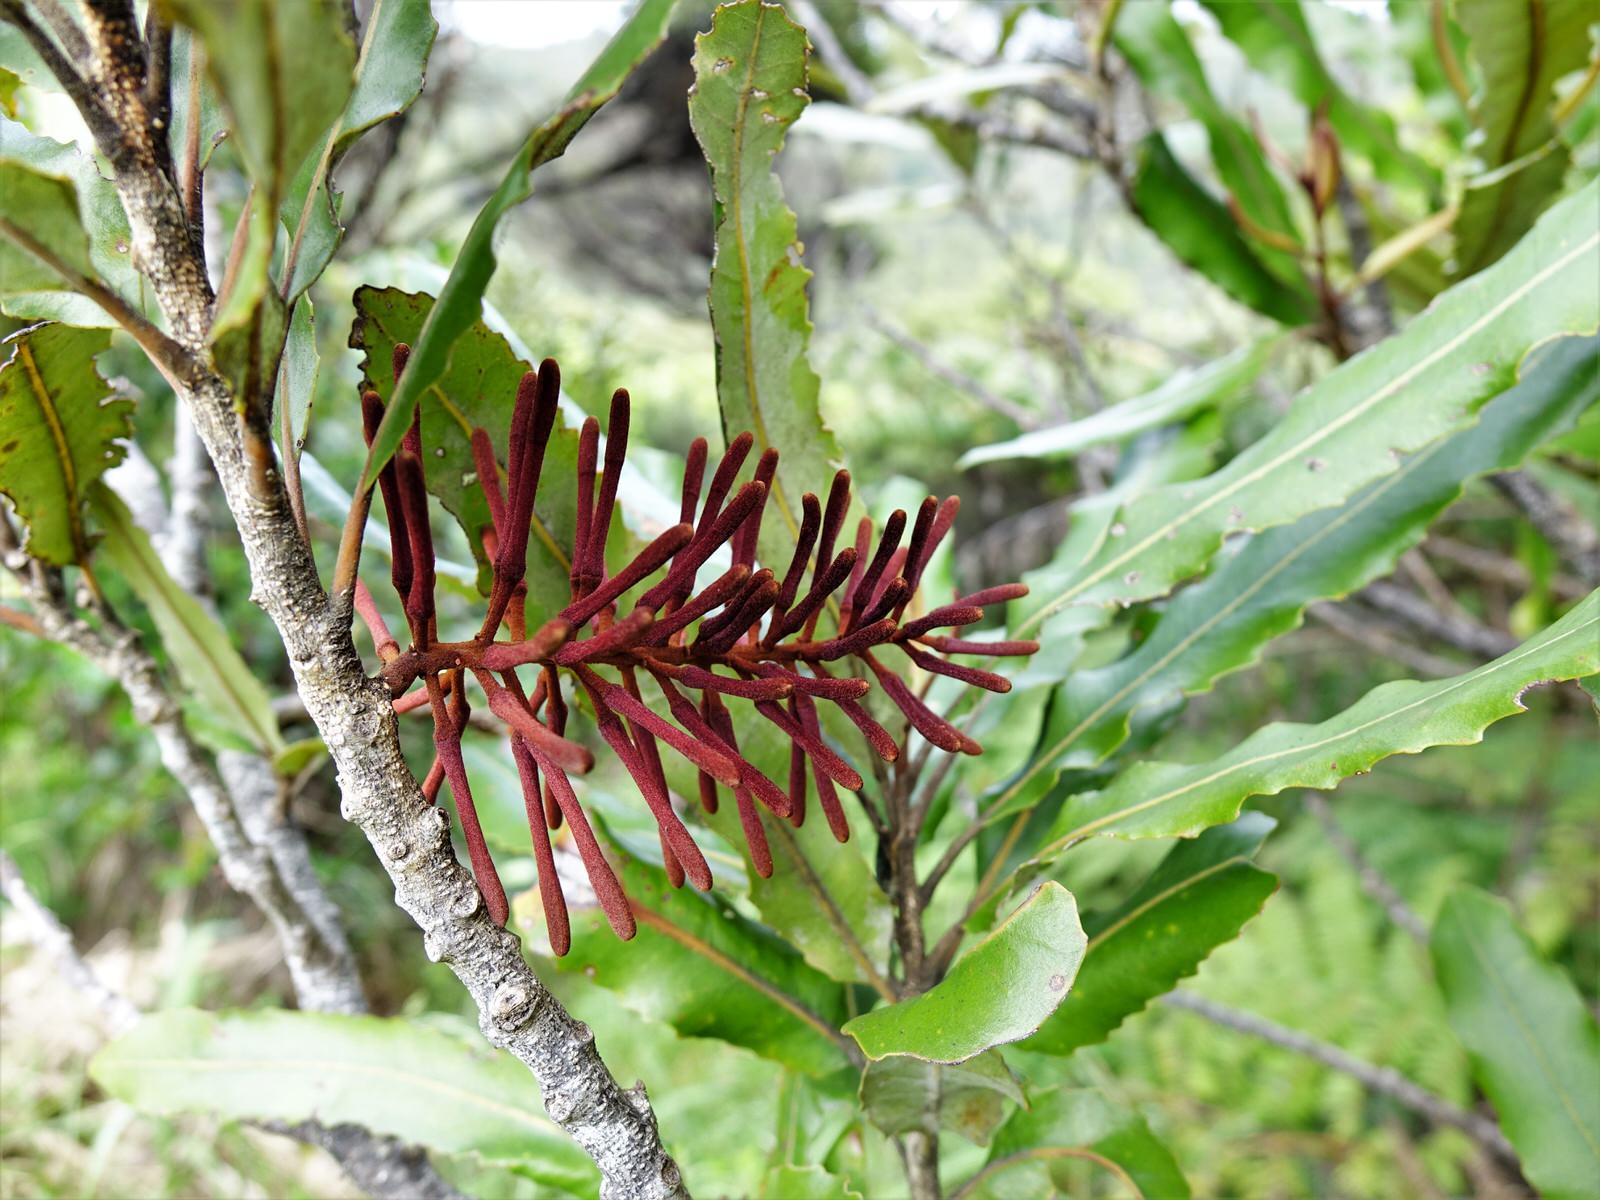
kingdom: Plantae
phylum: Tracheophyta
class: Magnoliopsida
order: Proteales
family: Proteaceae
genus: Knightia
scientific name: Knightia excelsa
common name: New zealand-honeysuckle
